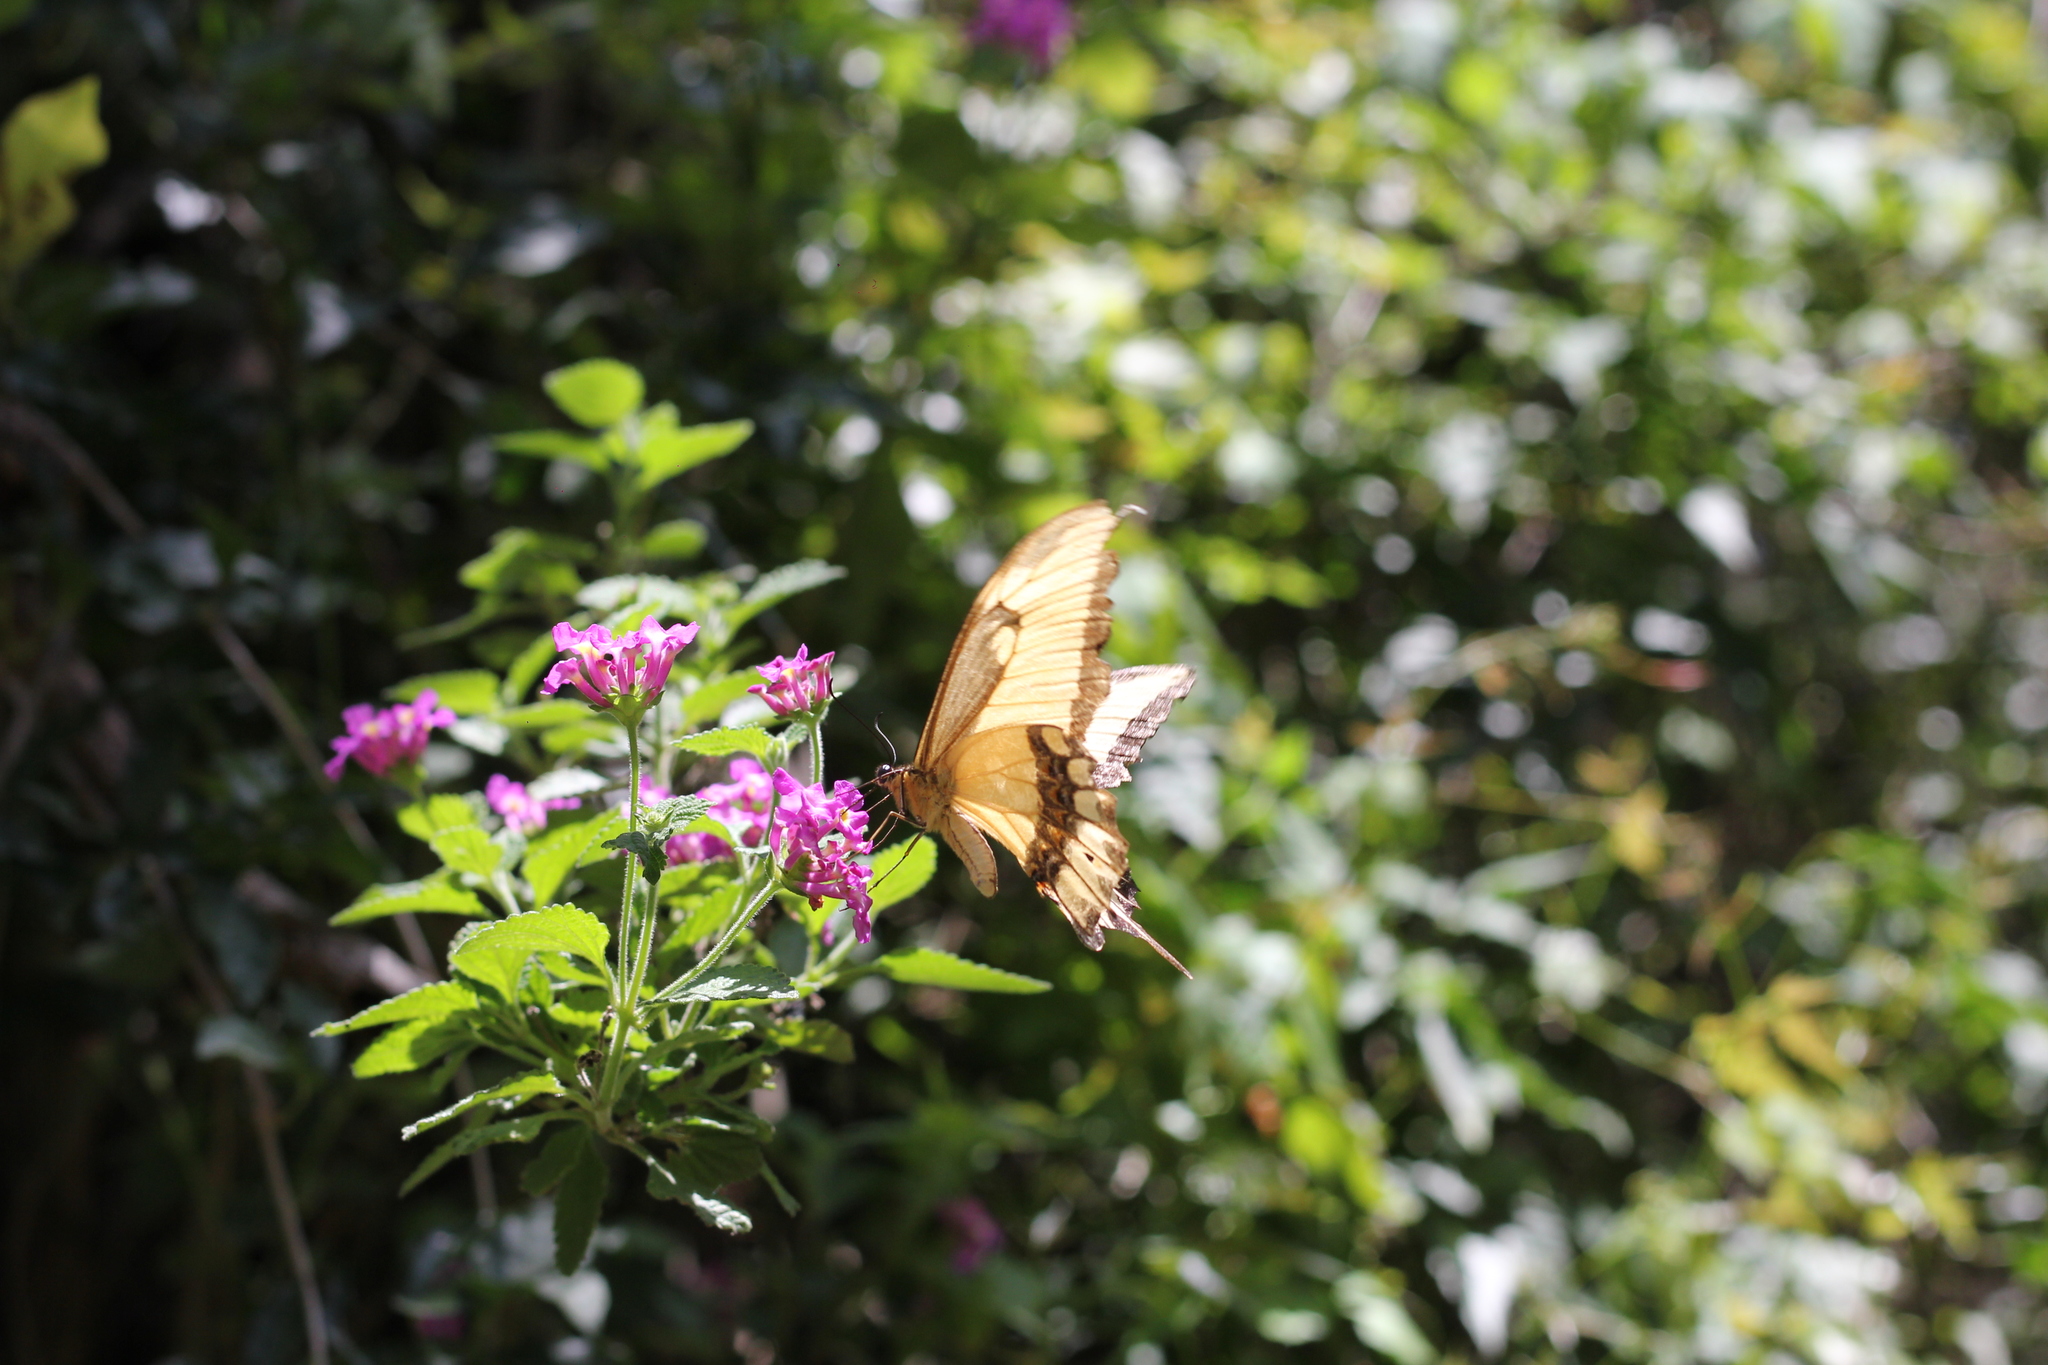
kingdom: Animalia
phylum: Arthropoda
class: Insecta
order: Lepidoptera
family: Papilionidae
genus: Papilio
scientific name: Papilio astyalus
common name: Astyalus swallowtail
